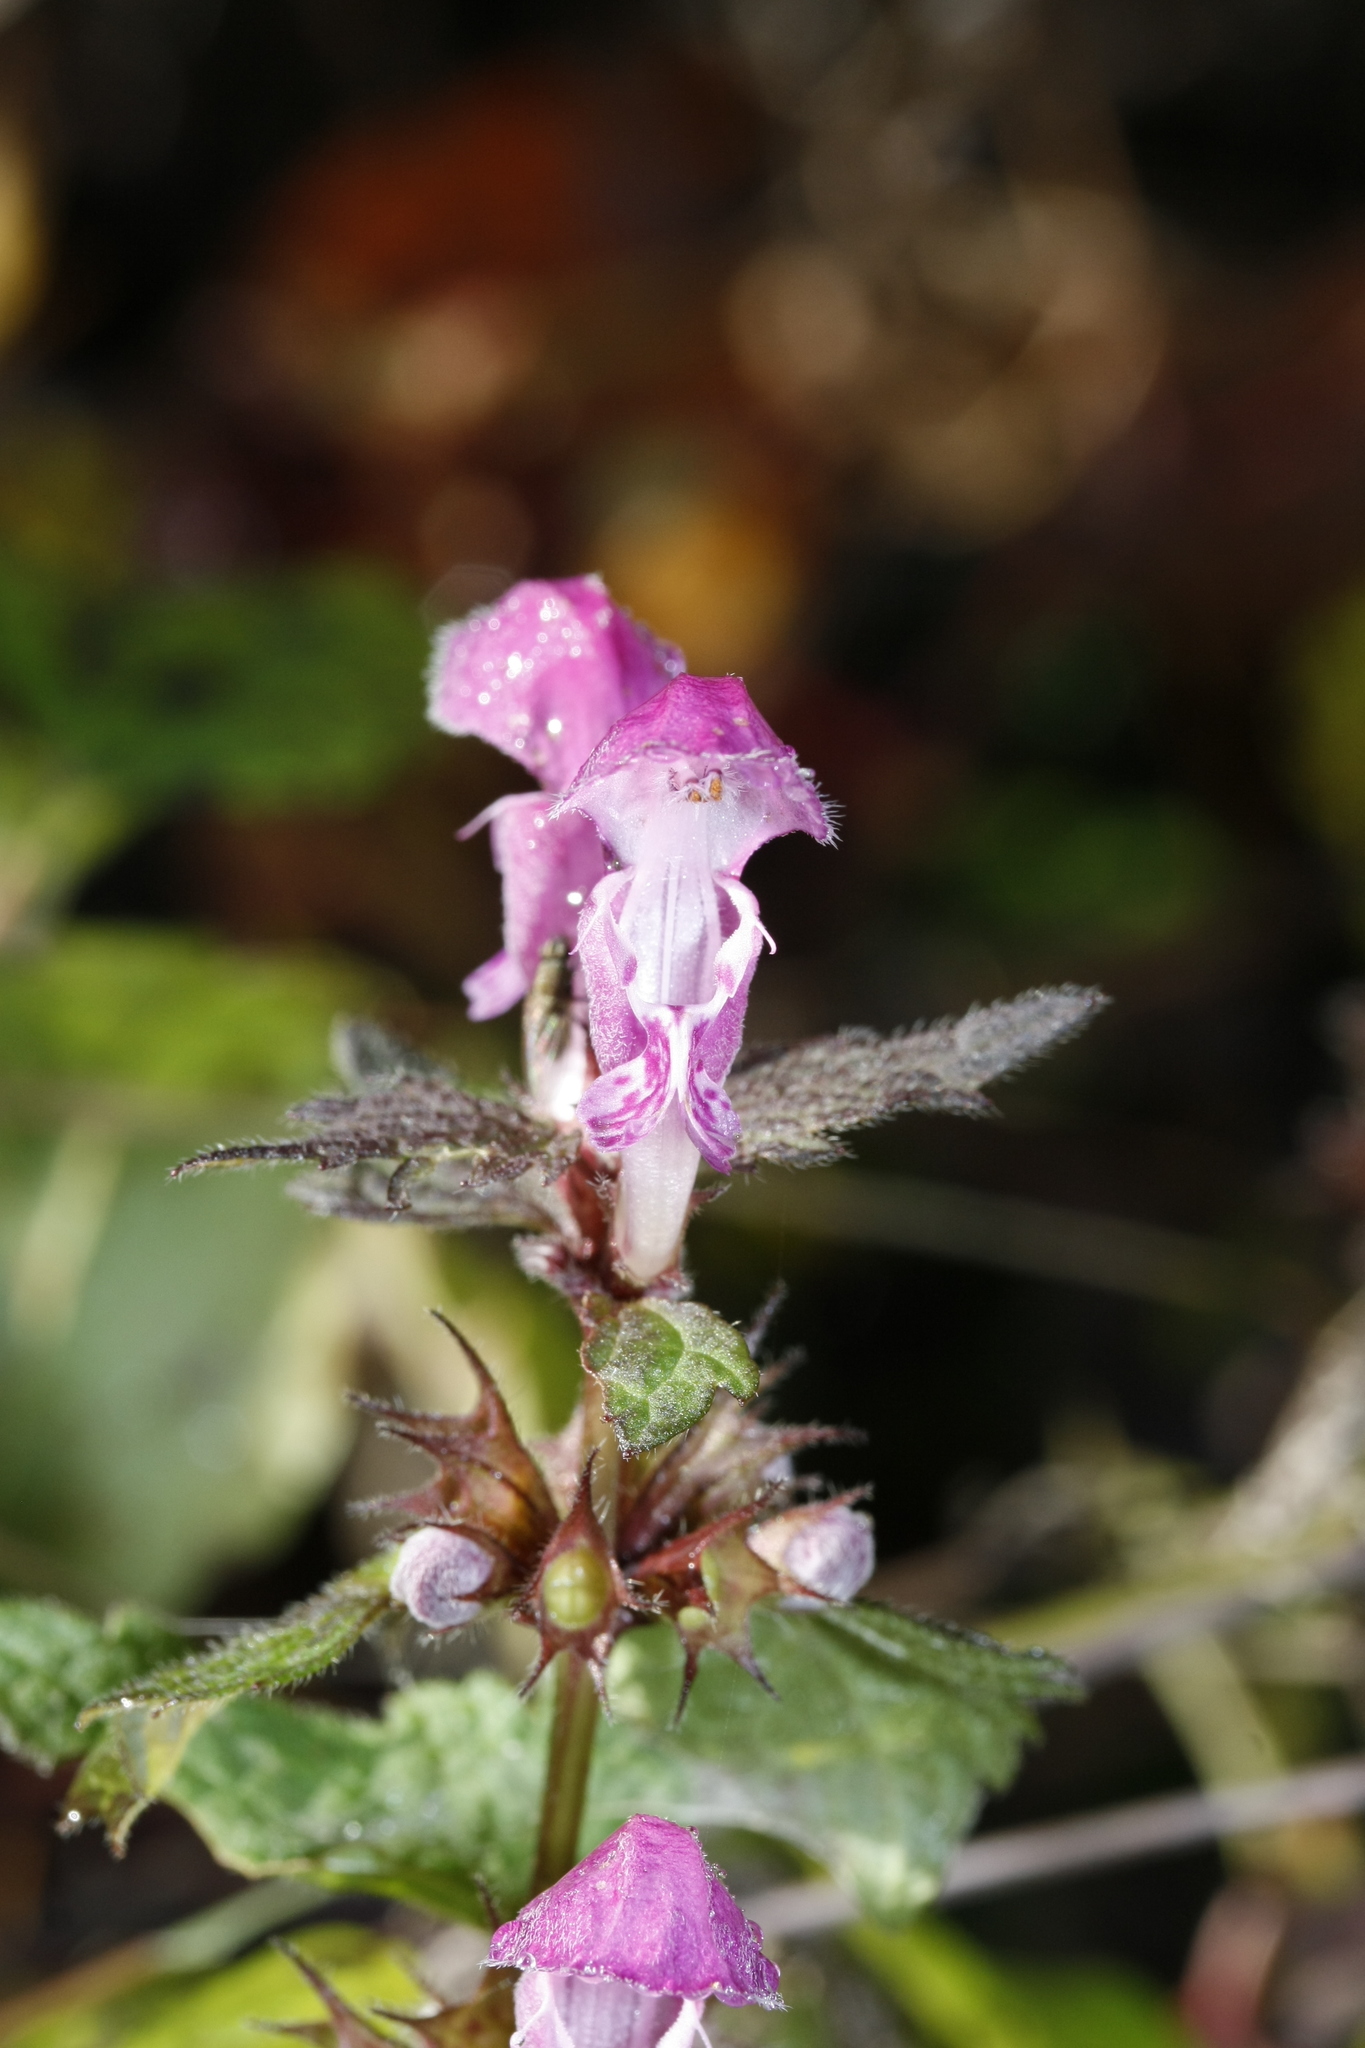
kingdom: Plantae
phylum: Tracheophyta
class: Magnoliopsida
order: Lamiales
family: Lamiaceae
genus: Lamium
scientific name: Lamium maculatum
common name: Spotted dead-nettle
